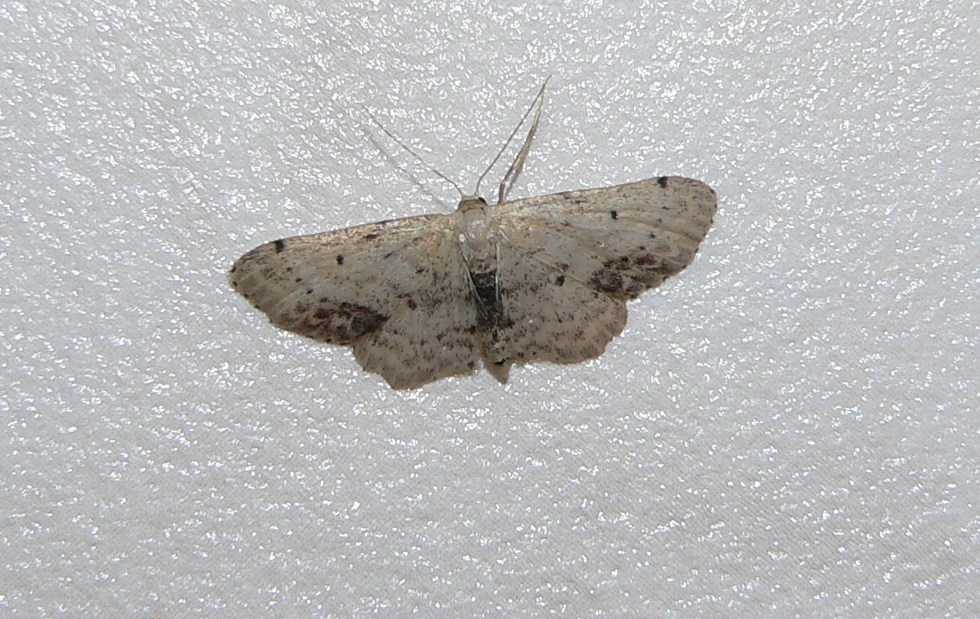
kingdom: Animalia
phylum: Arthropoda
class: Insecta
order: Lepidoptera
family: Geometridae
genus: Idaea
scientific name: Idaea dimidiata
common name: Single-dotted wave
